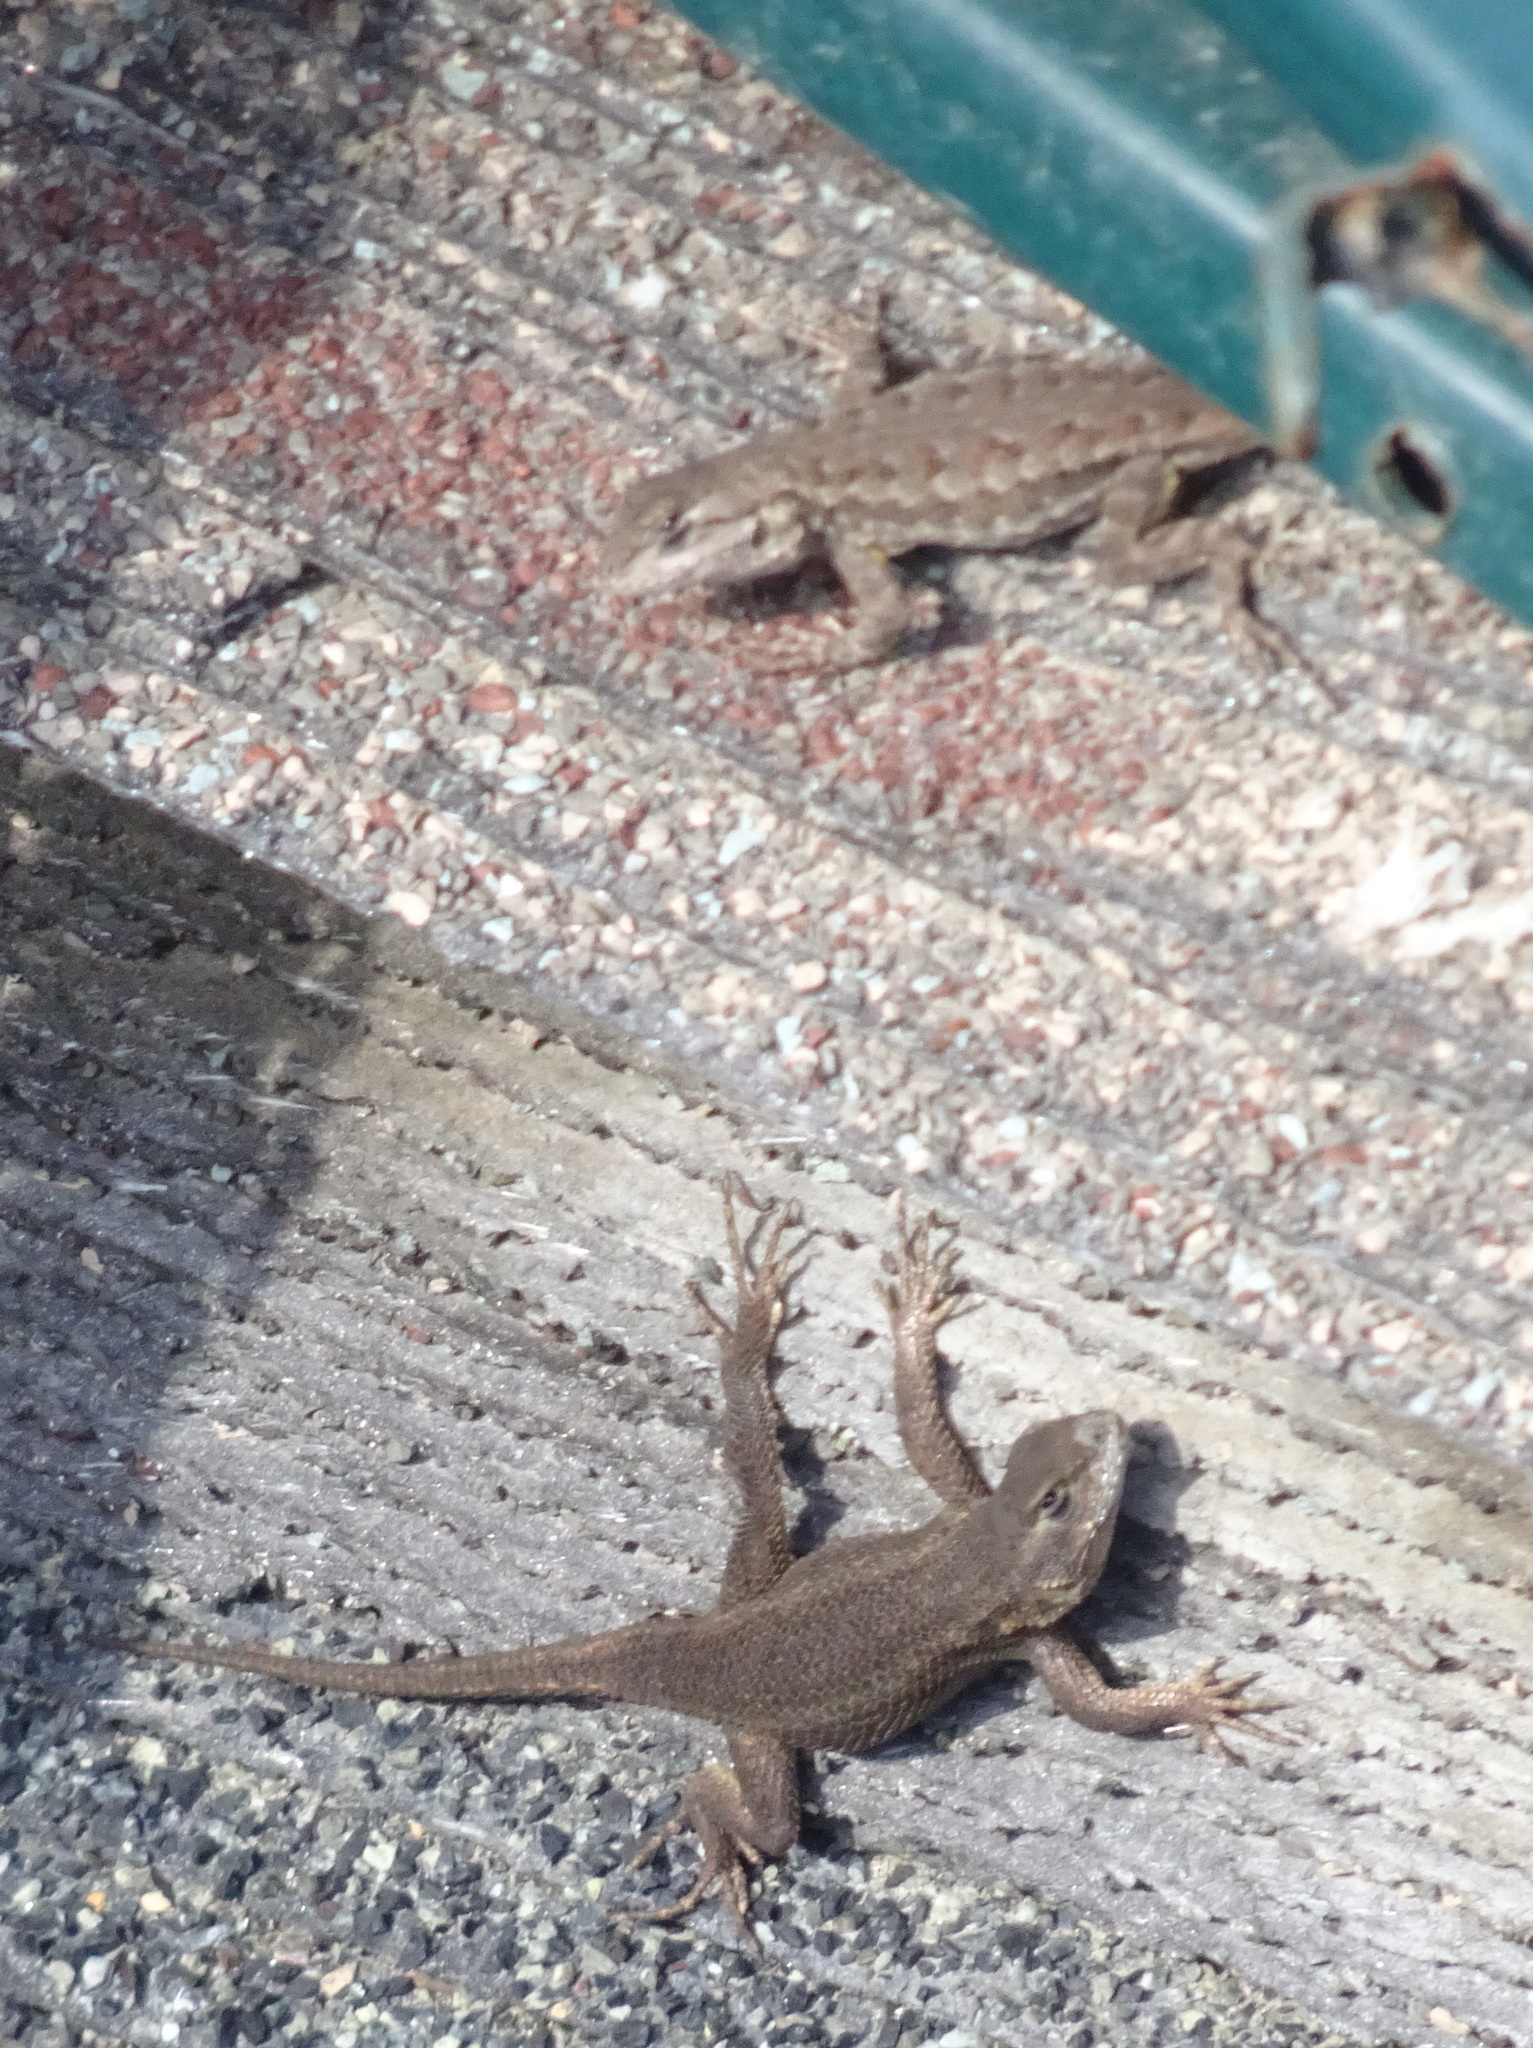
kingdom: Animalia
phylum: Chordata
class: Squamata
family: Phrynosomatidae
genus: Sceloporus
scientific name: Sceloporus occidentalis
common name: Western fence lizard
